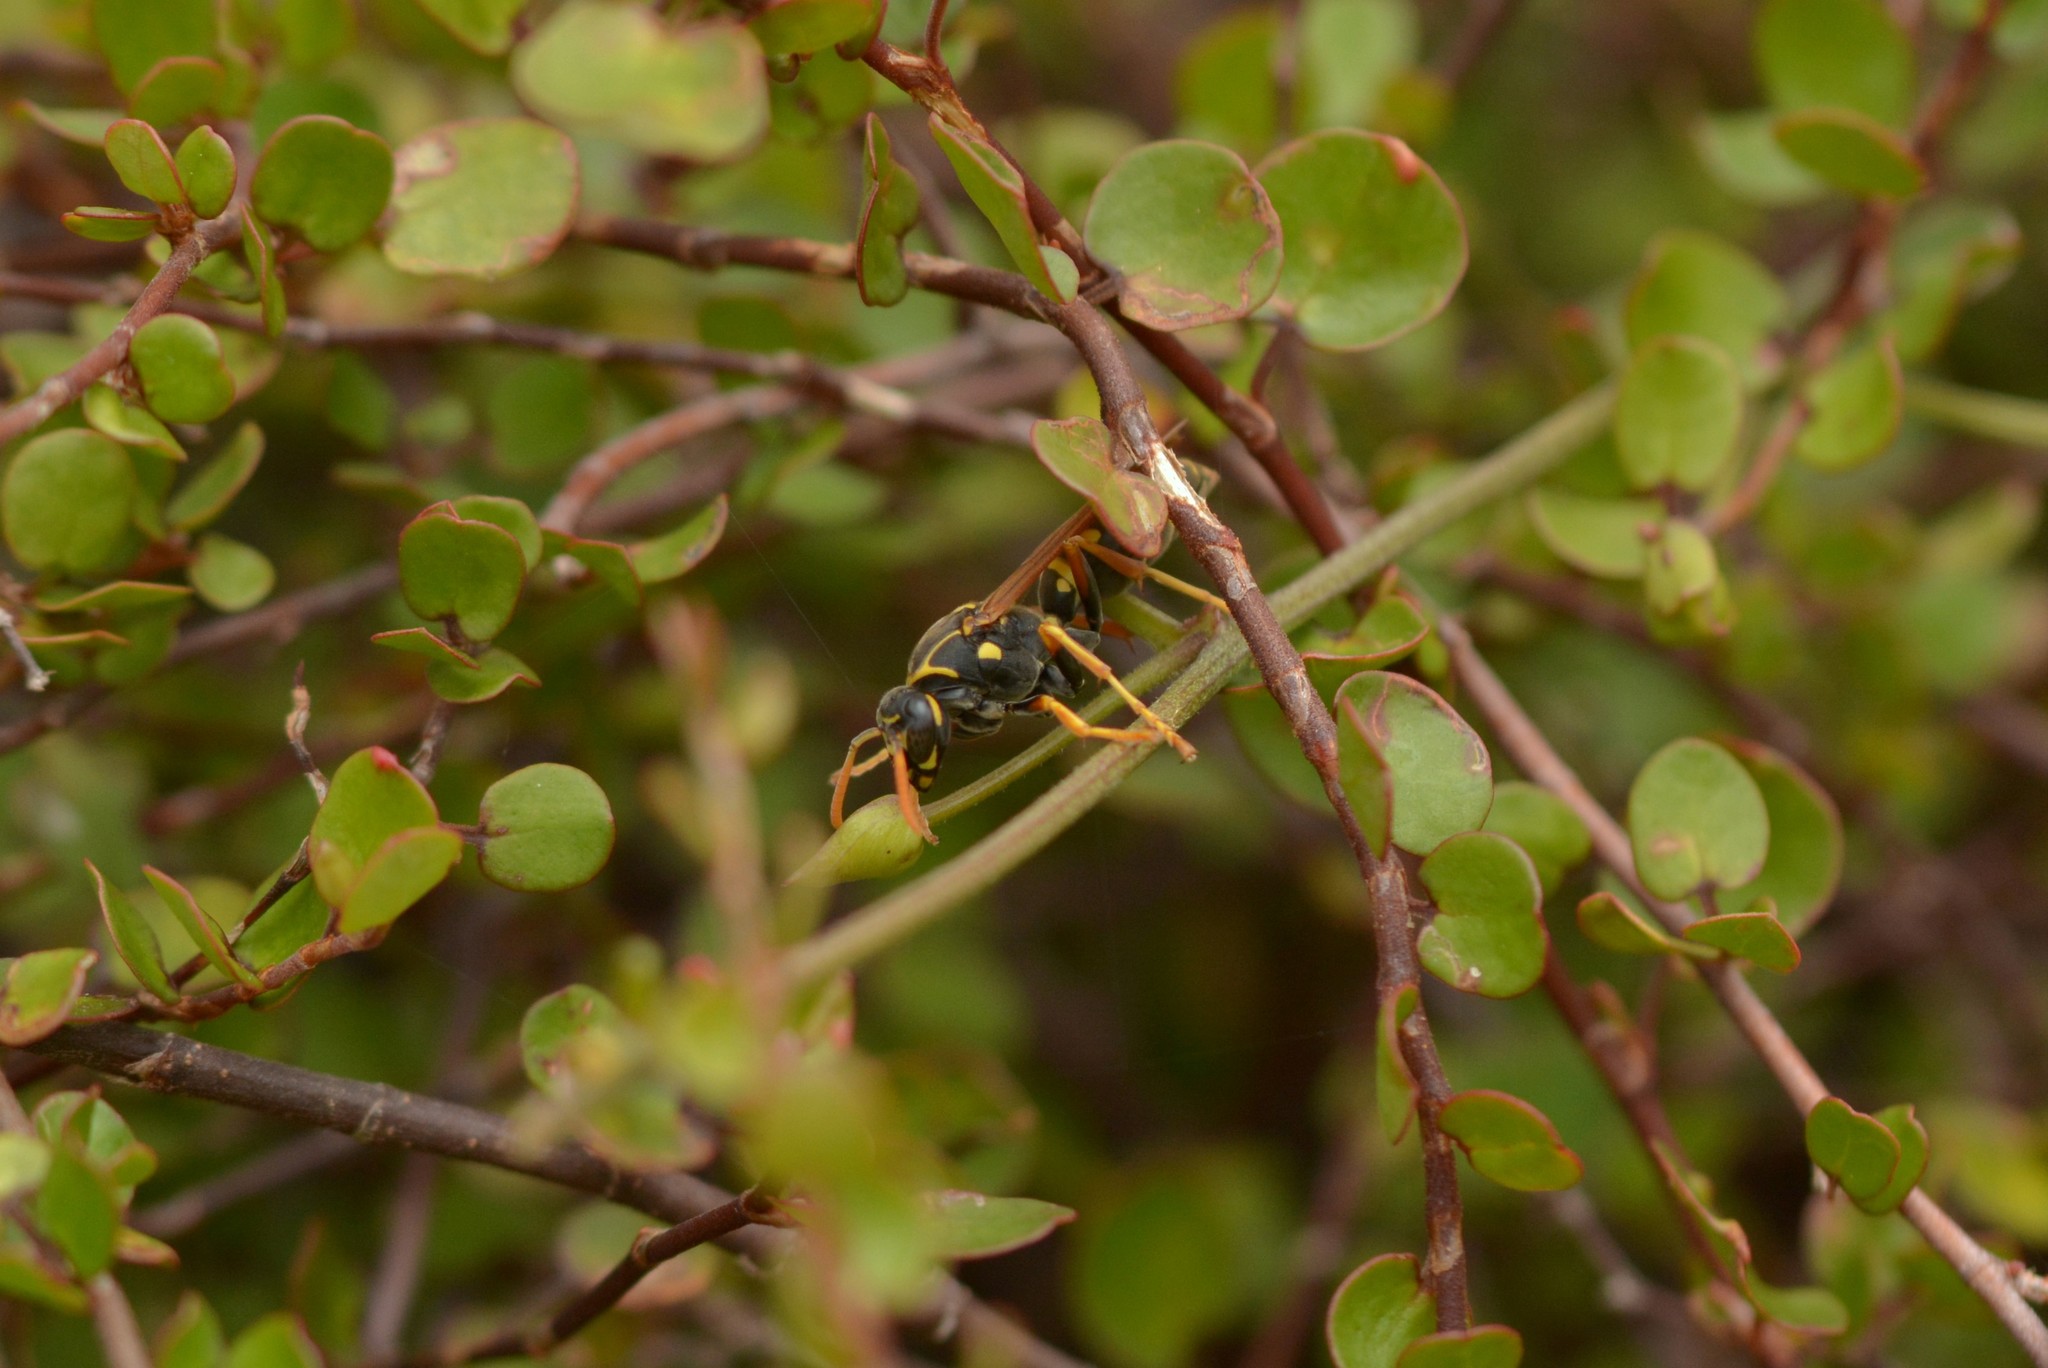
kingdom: Animalia
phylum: Arthropoda
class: Insecta
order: Hymenoptera
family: Eumenidae
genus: Polistes
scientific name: Polistes chinensis
